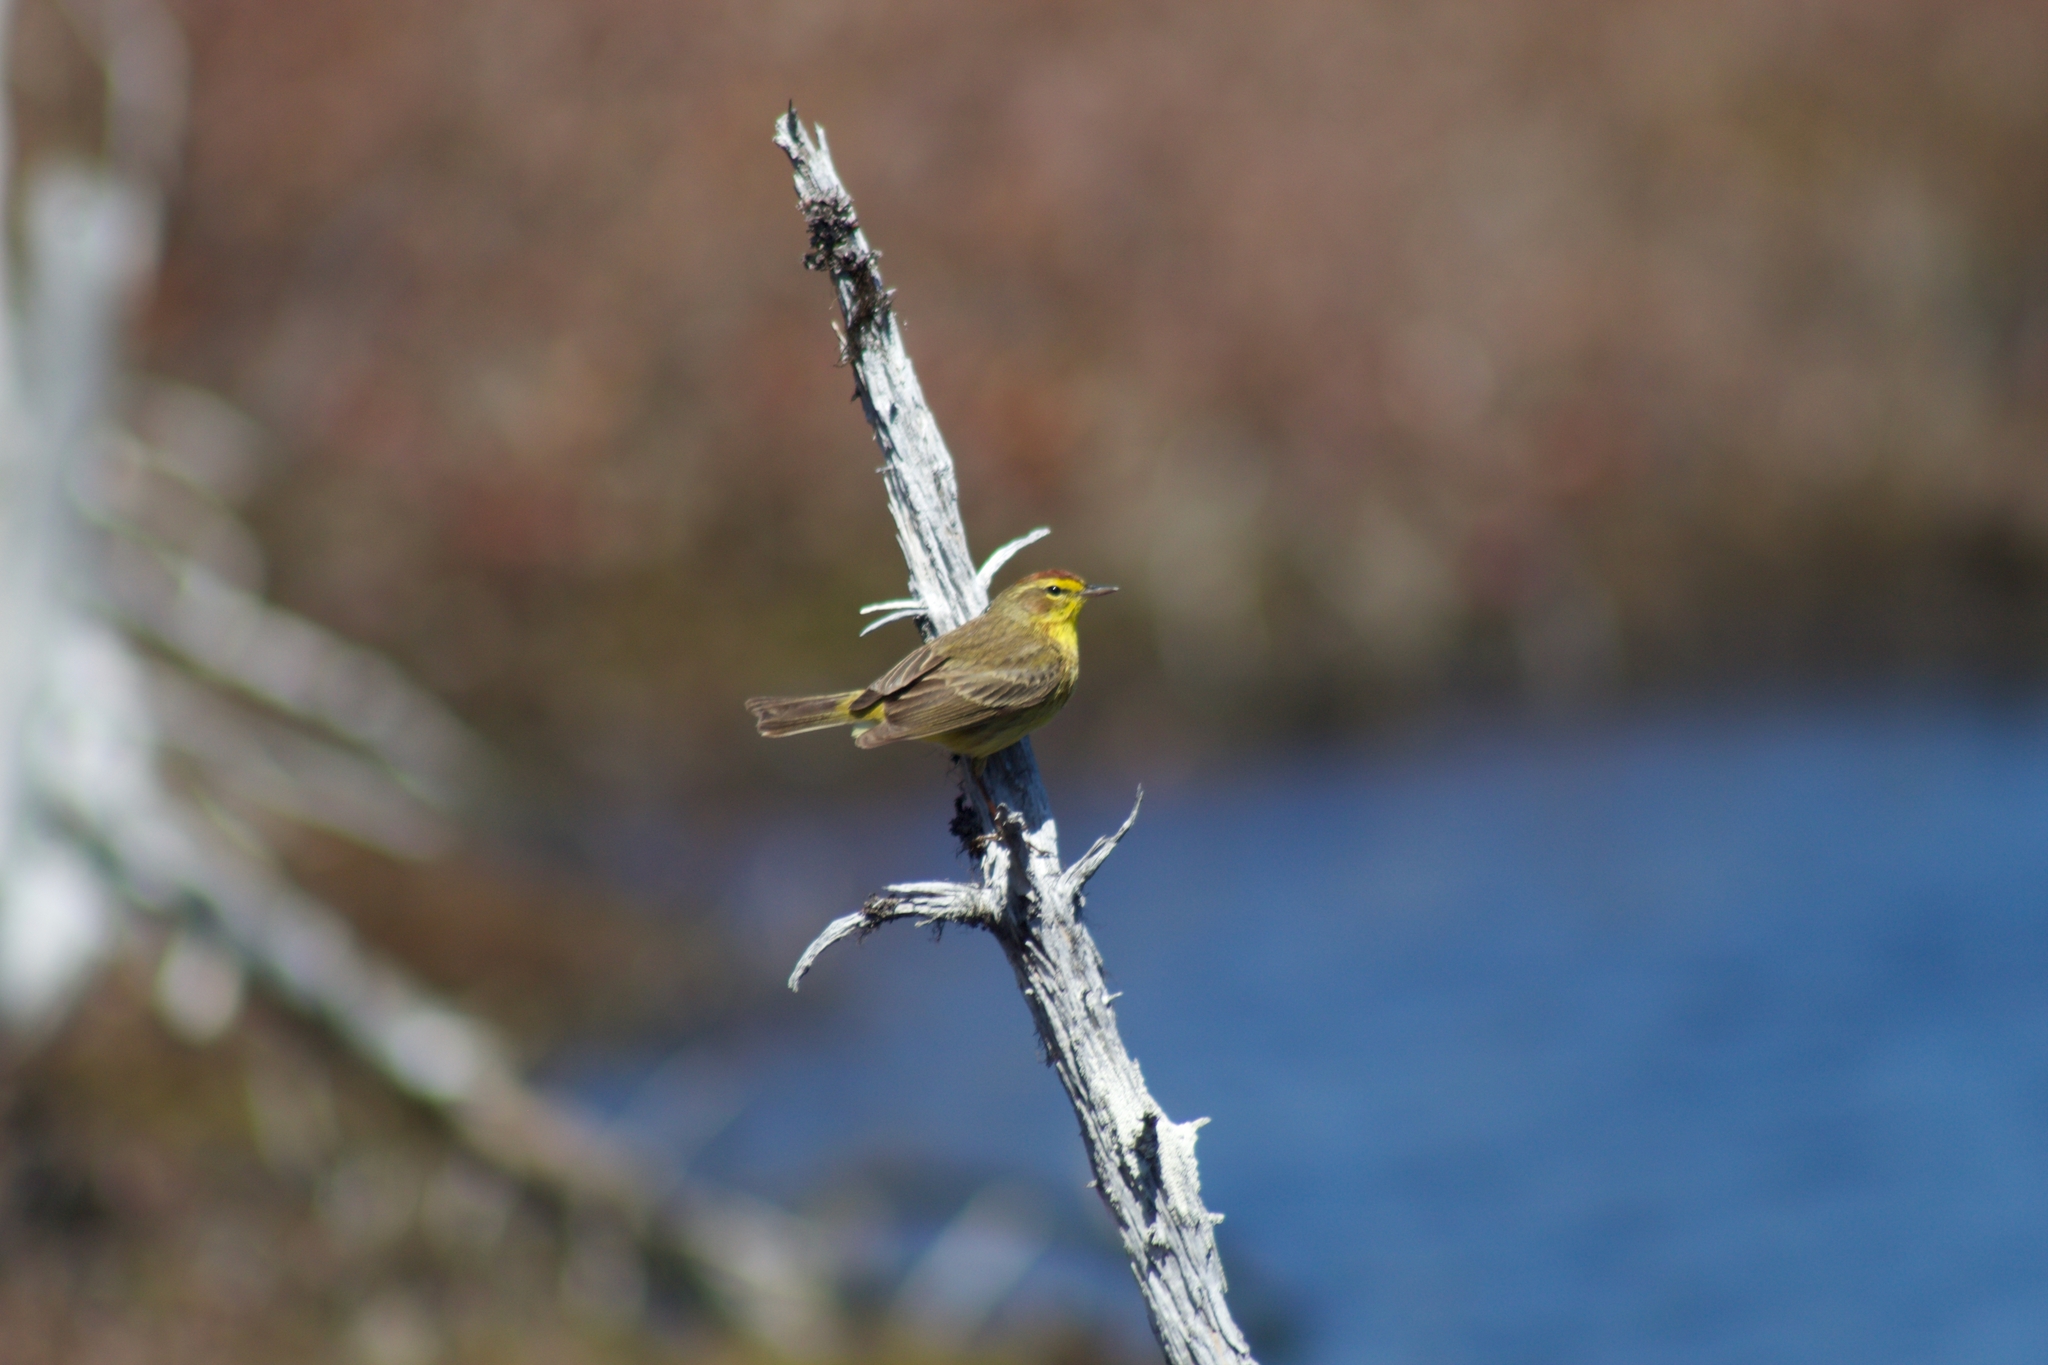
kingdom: Animalia
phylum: Chordata
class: Aves
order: Passeriformes
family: Parulidae
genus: Setophaga
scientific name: Setophaga palmarum
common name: Palm warbler
